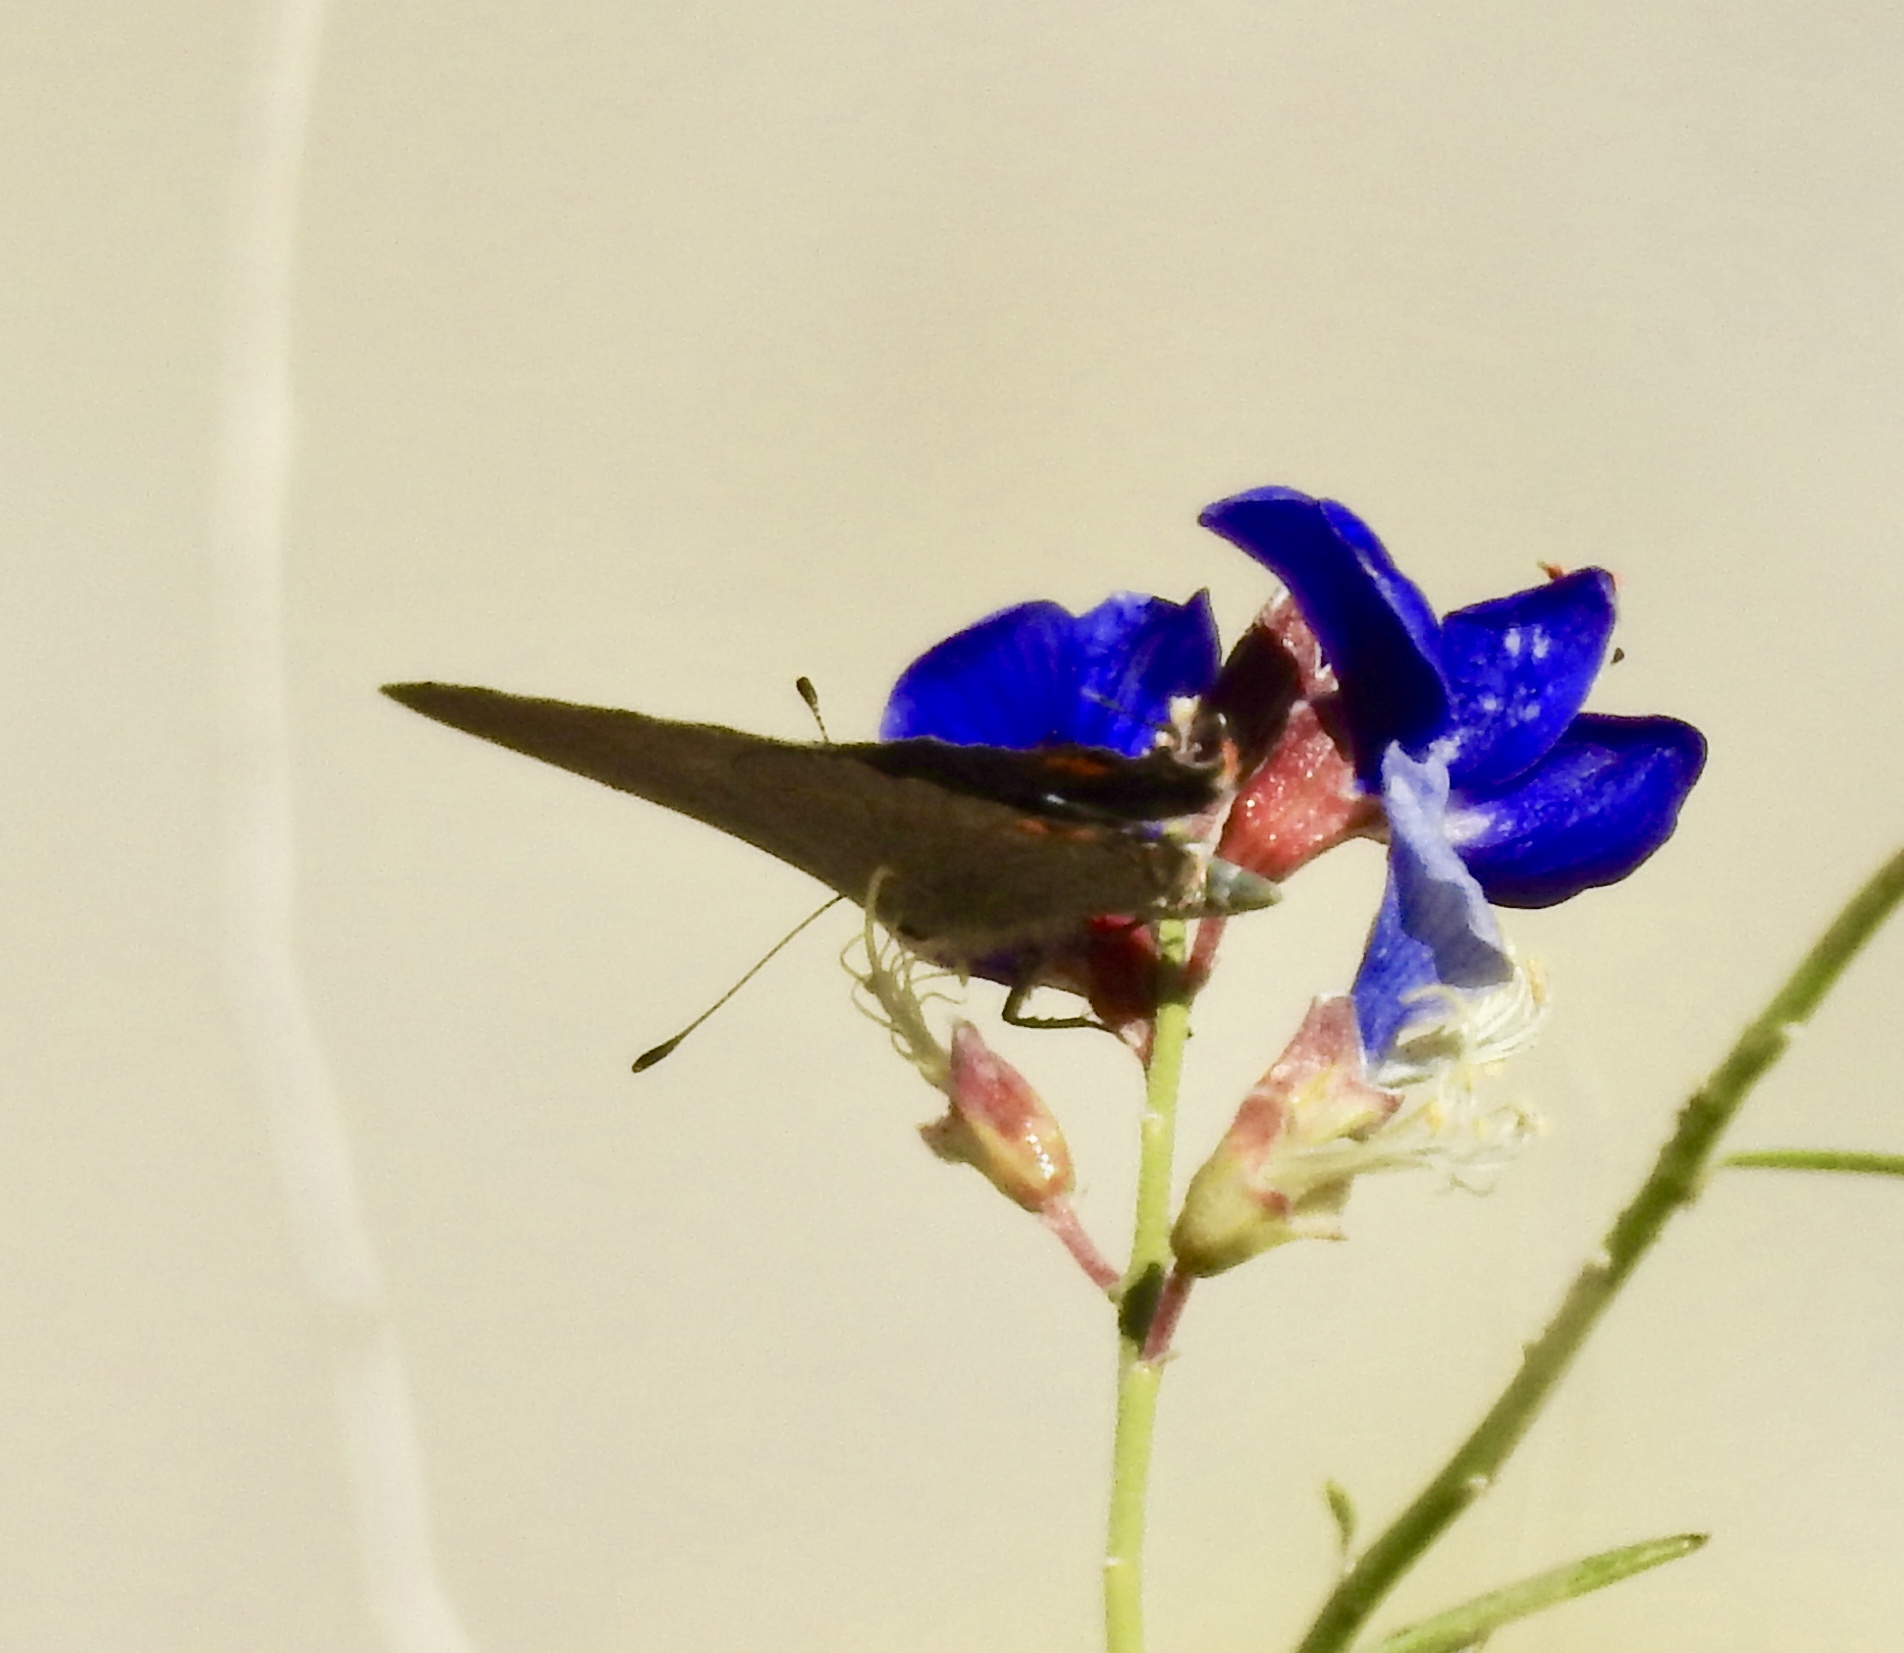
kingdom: Animalia
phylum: Arthropoda
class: Insecta
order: Lepidoptera
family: Lycaenidae
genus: Strymon
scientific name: Strymon melinus
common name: Gray hairstreak
